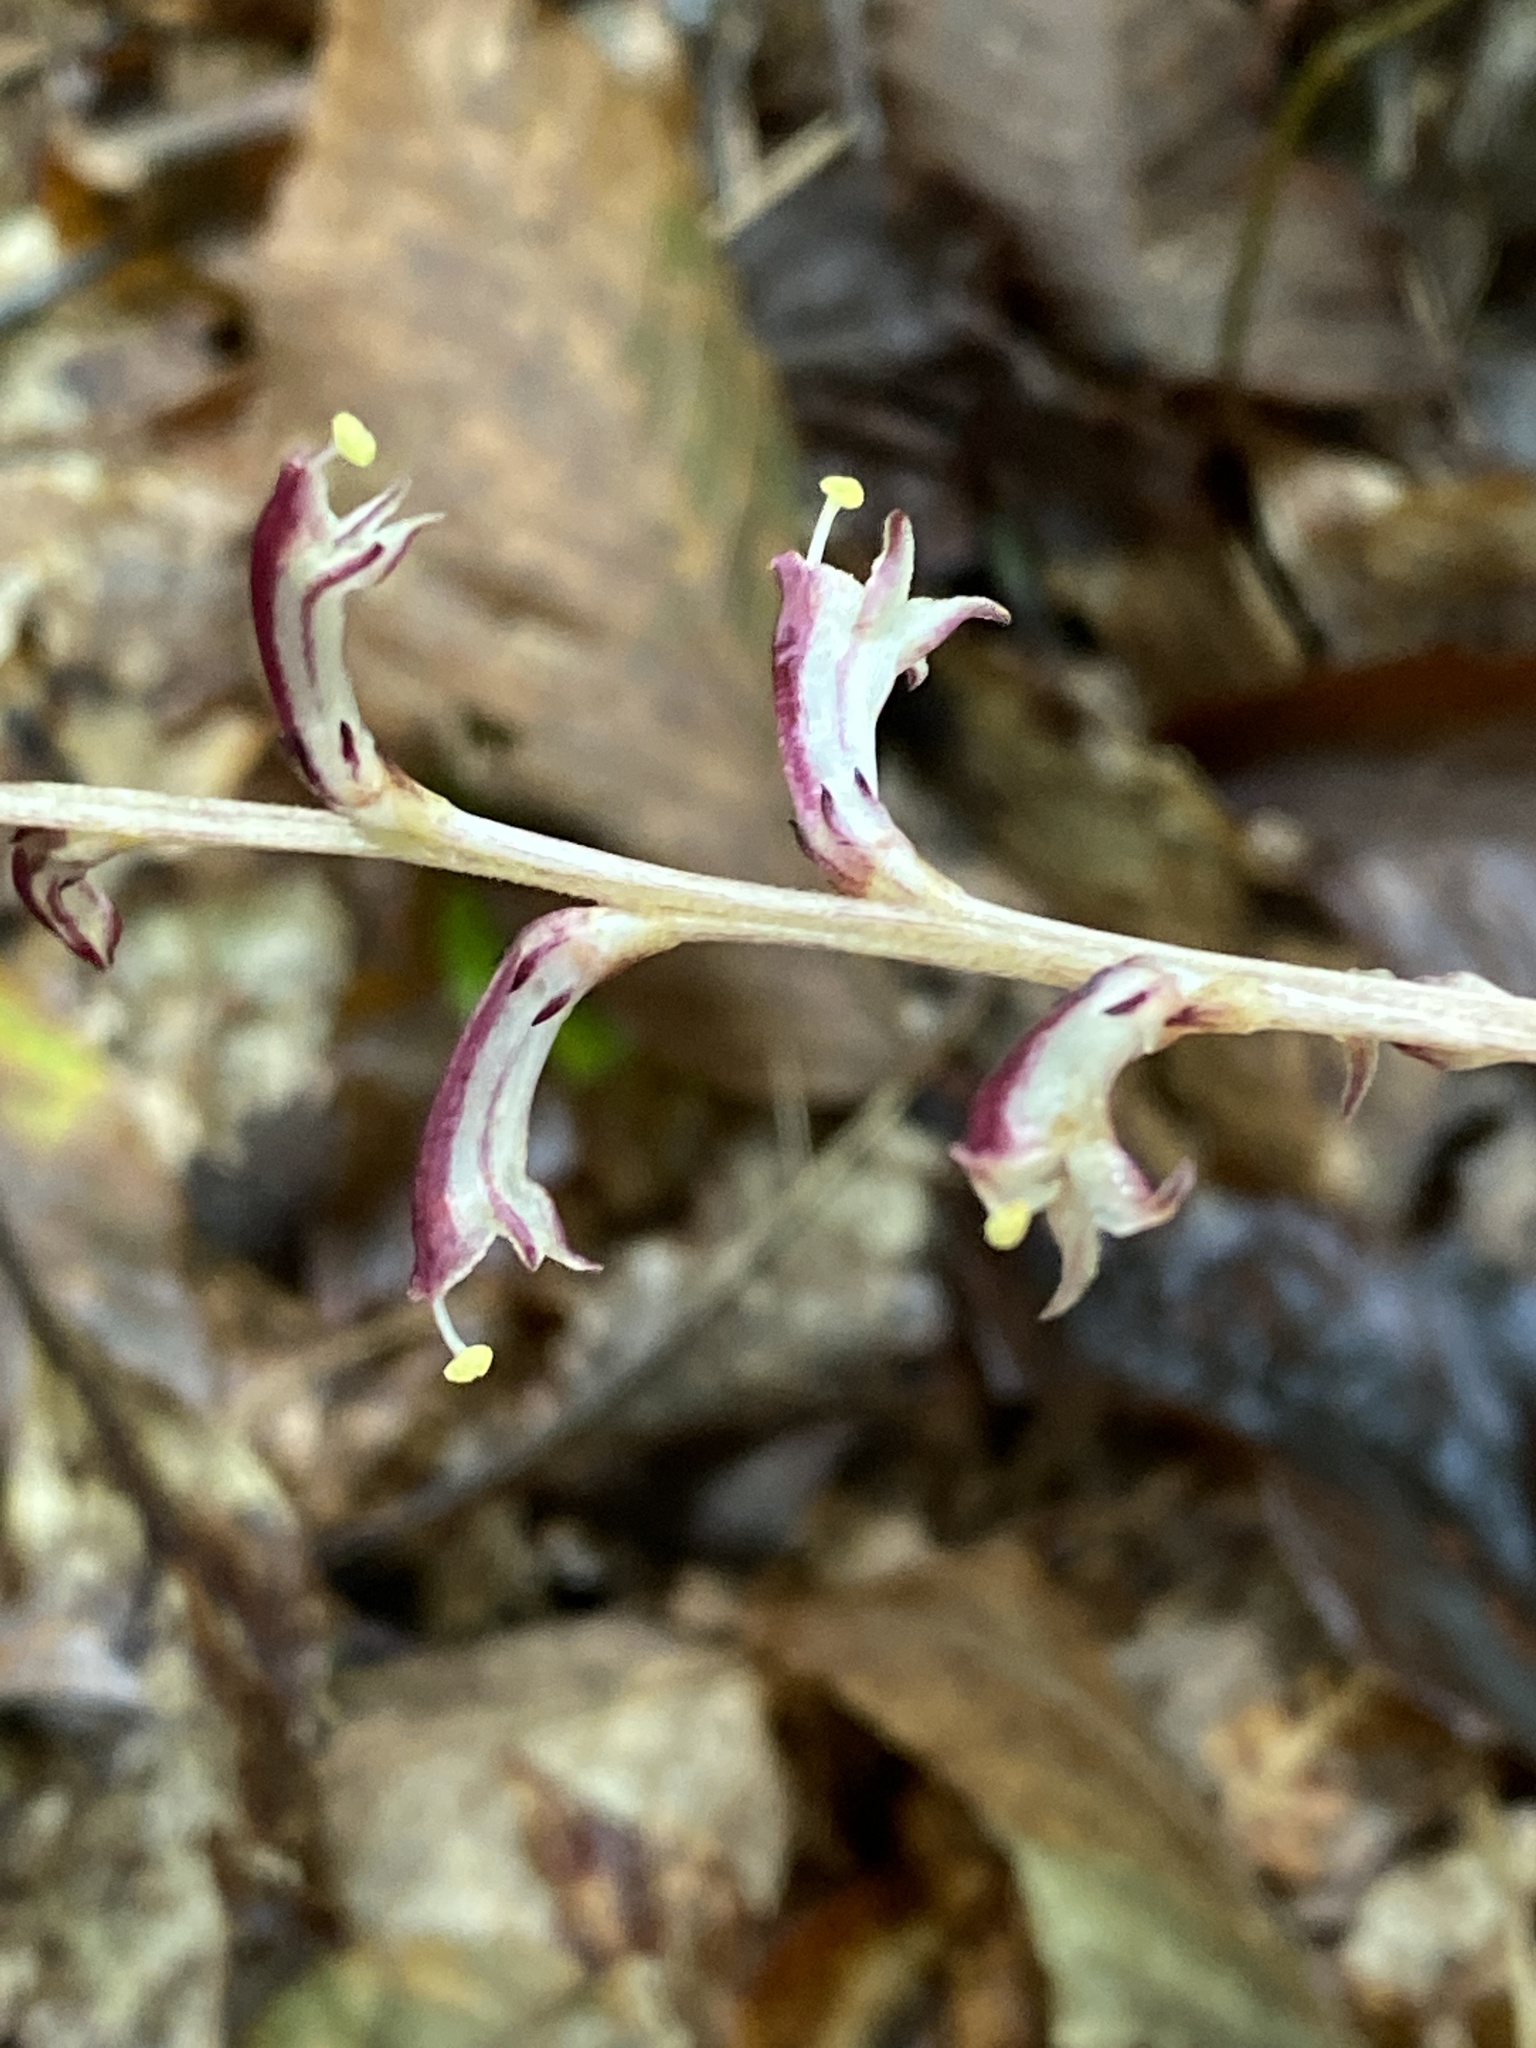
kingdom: Plantae
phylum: Tracheophyta
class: Magnoliopsida
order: Lamiales
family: Orobanchaceae
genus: Epifagus
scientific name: Epifagus virginiana
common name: Beechdrops
